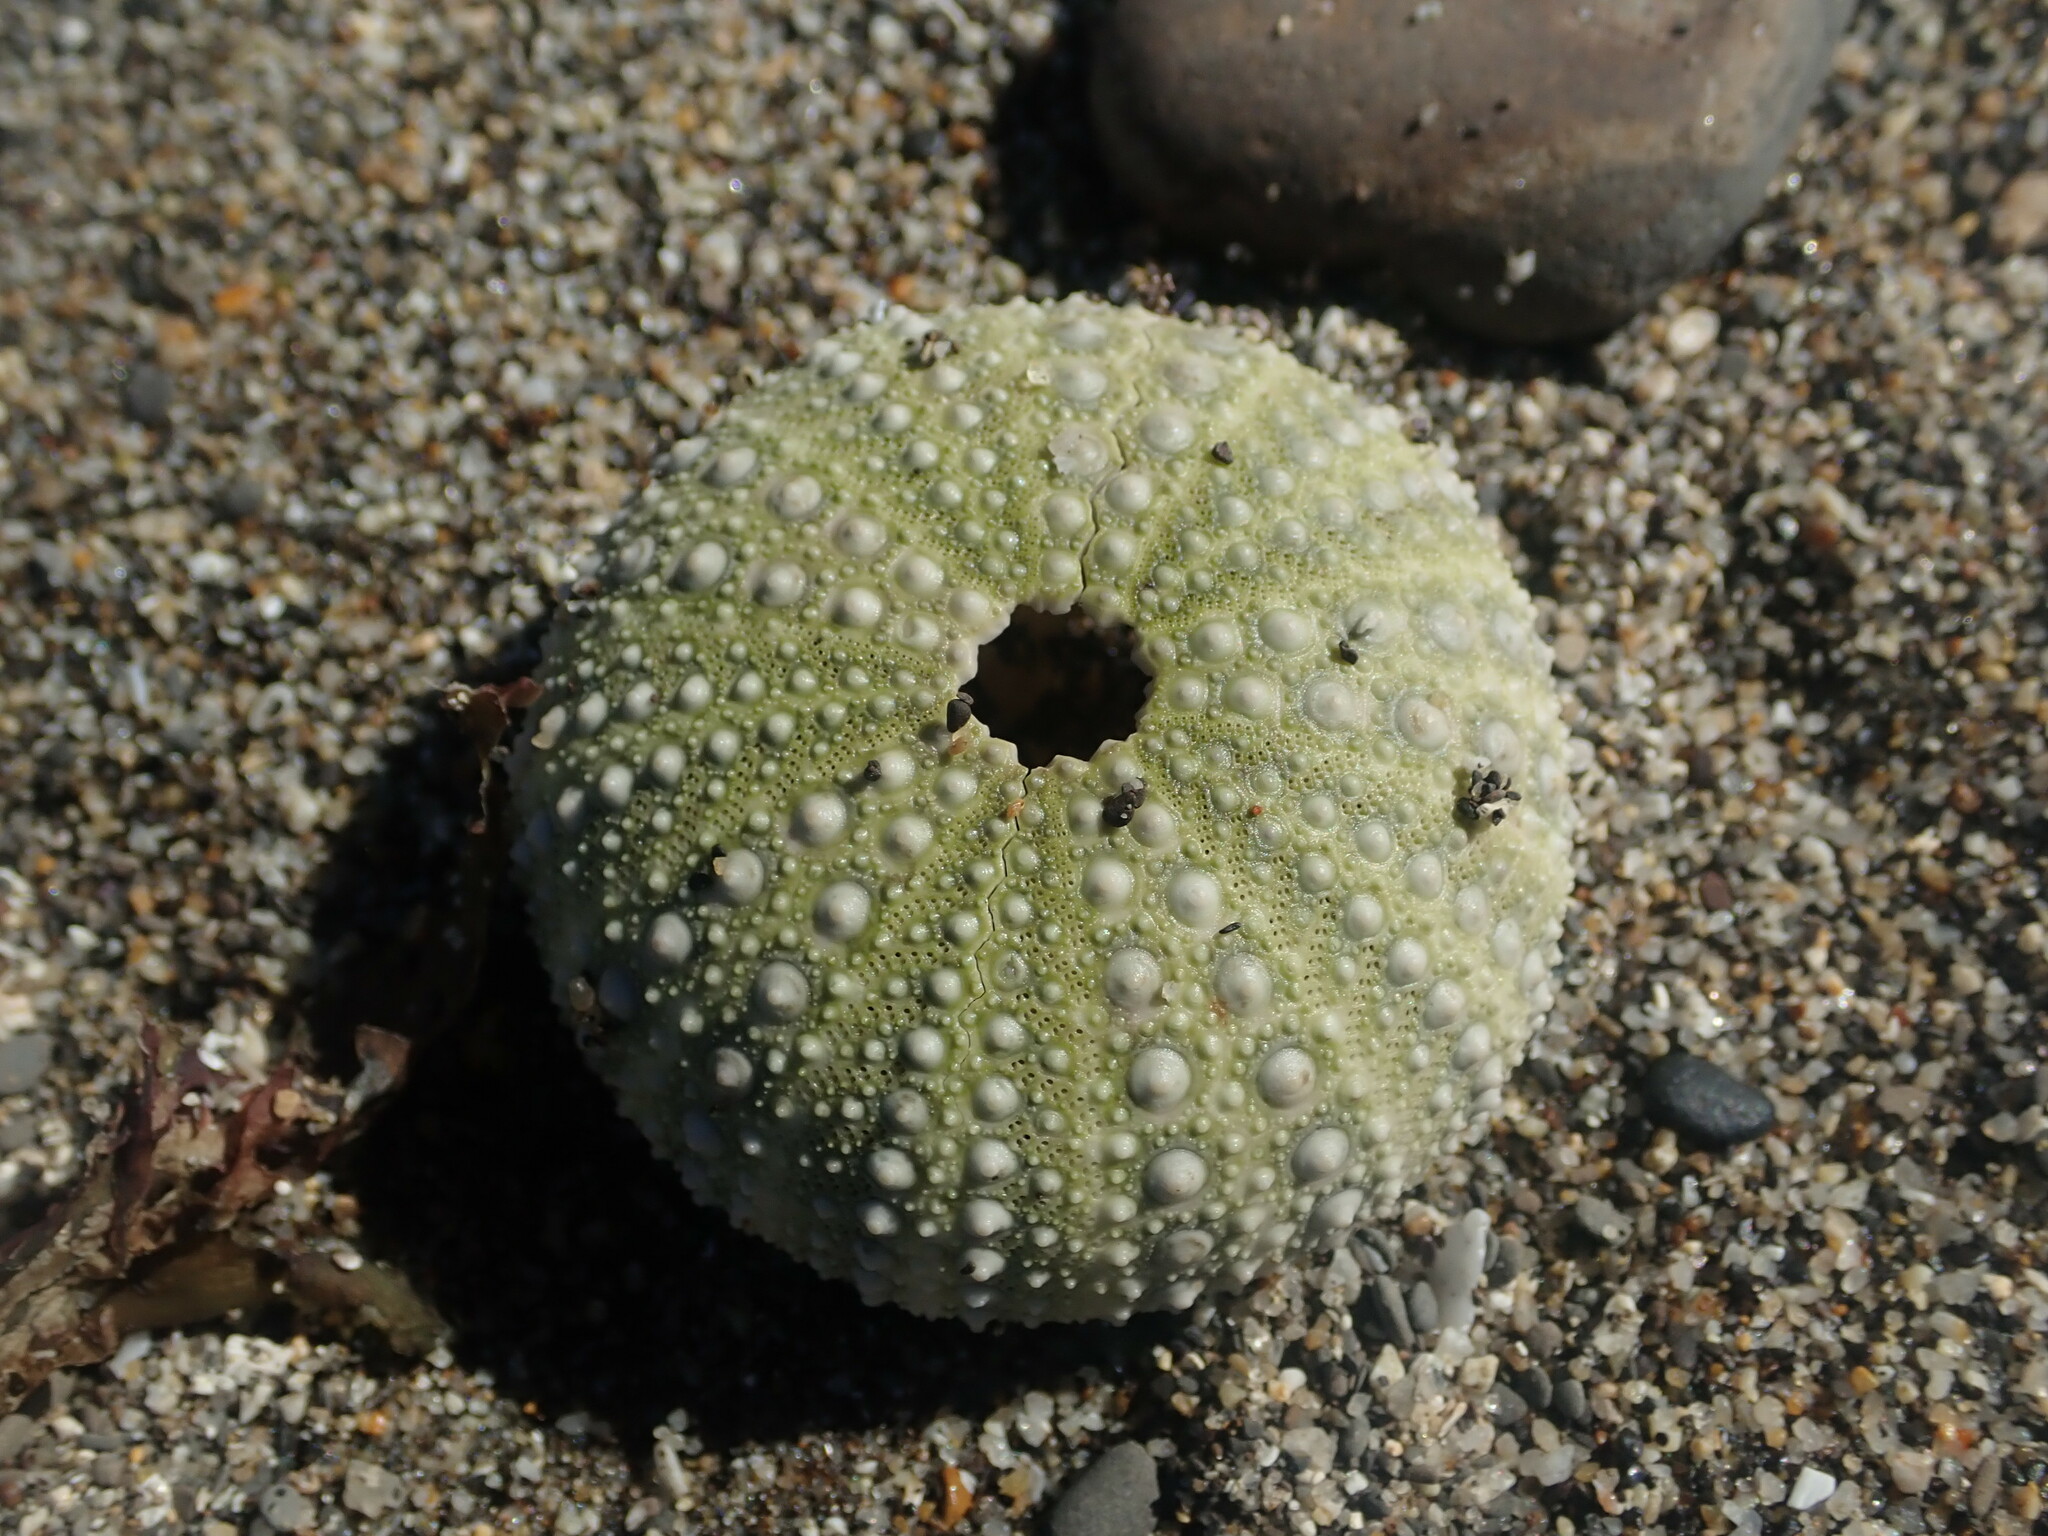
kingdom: Animalia
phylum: Echinodermata
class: Echinoidea
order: Camarodonta
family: Strongylocentrotidae
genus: Strongylocentrotus
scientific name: Strongylocentrotus purpuratus
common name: Purple sea urchin
